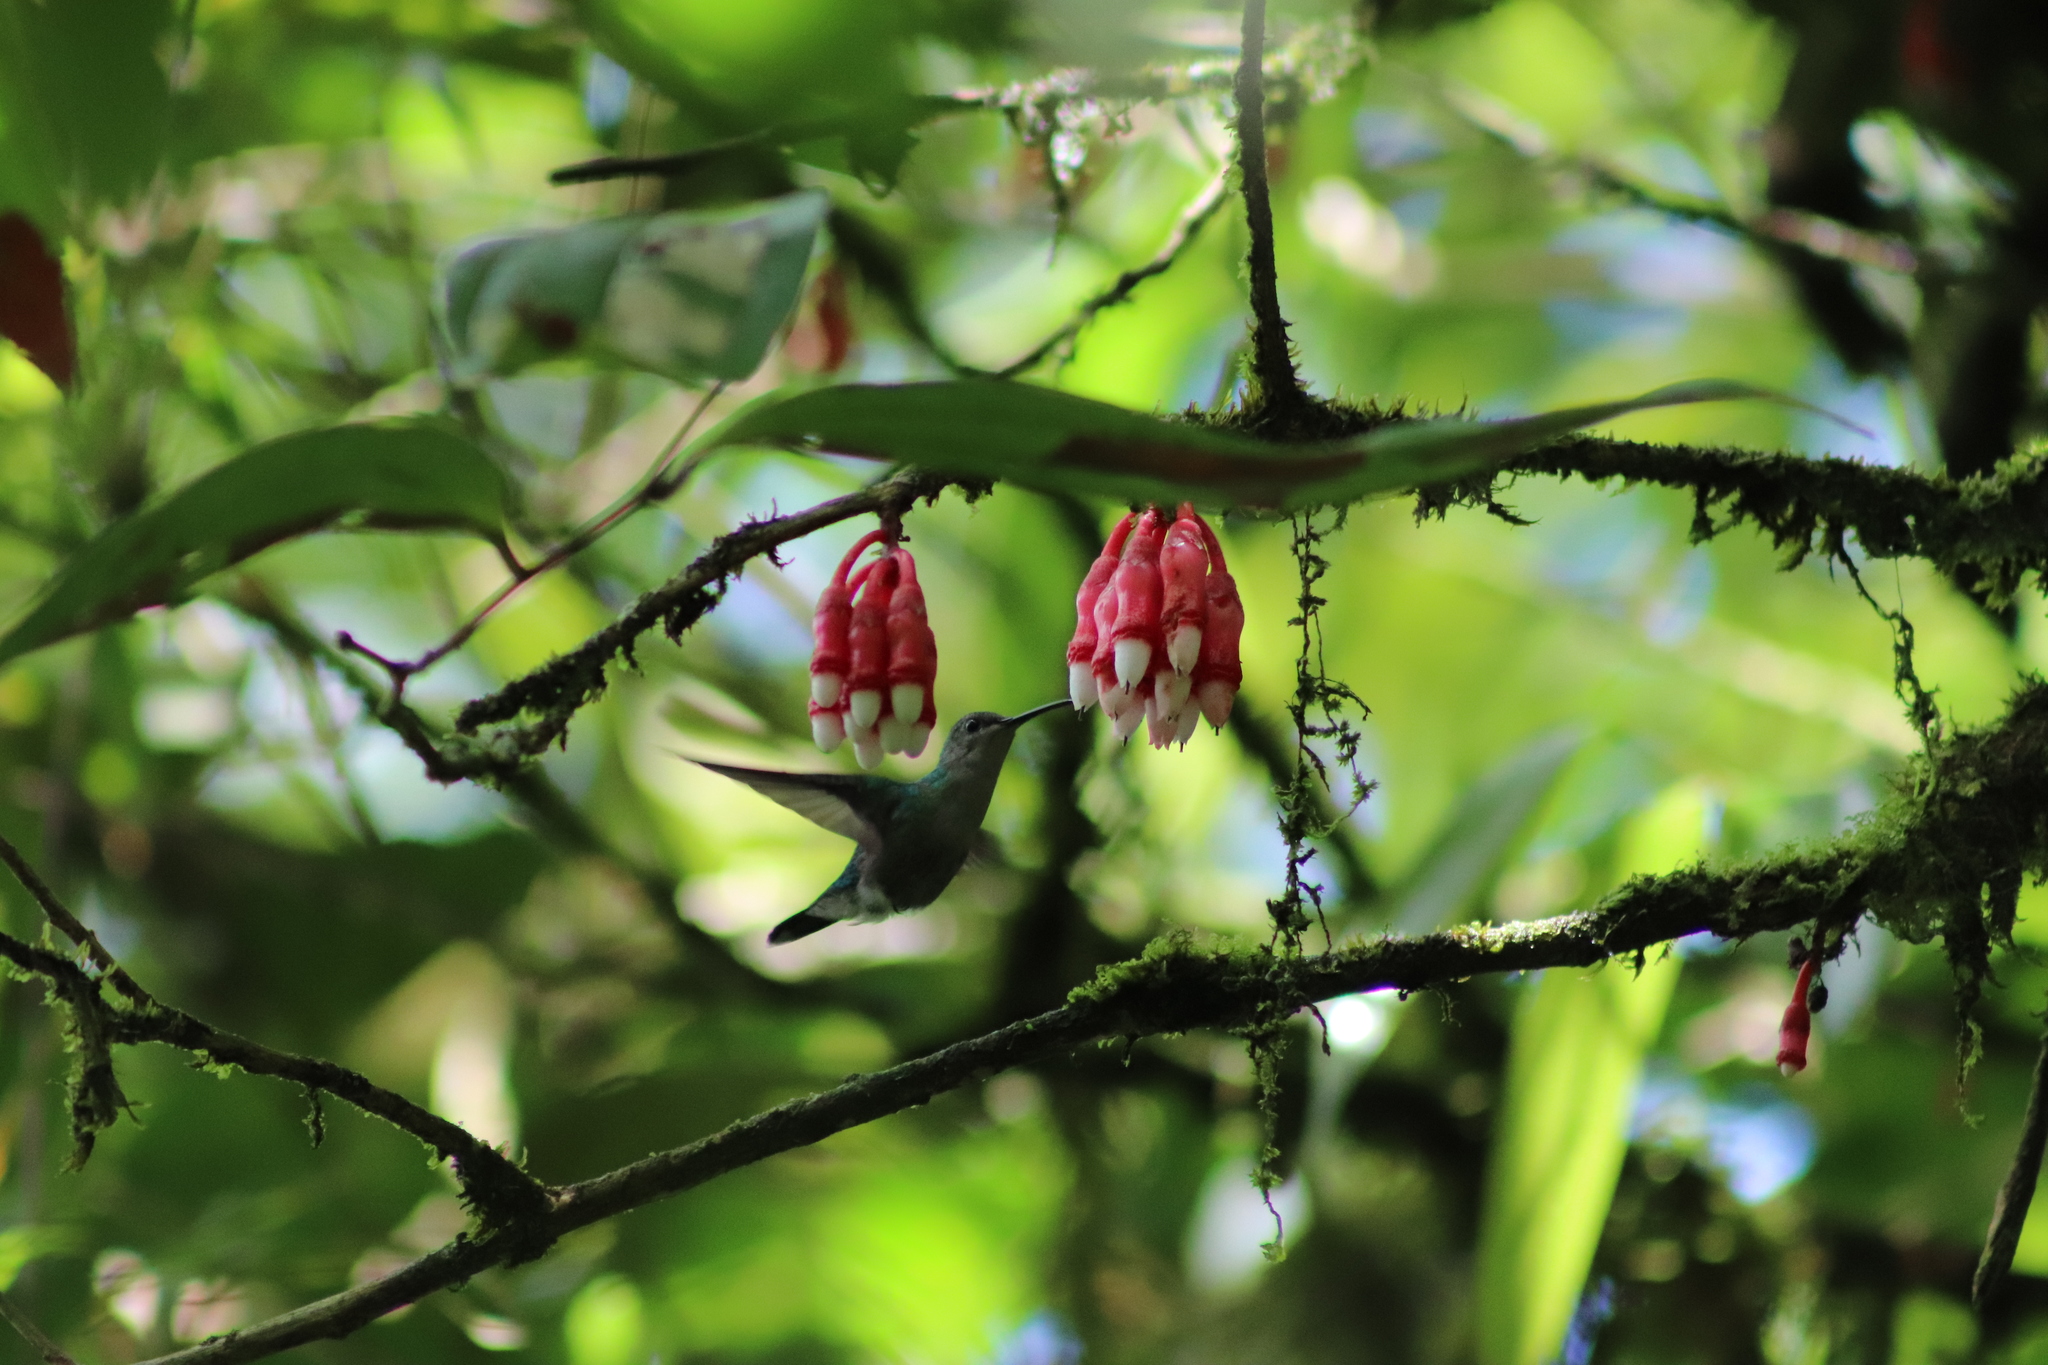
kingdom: Animalia
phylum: Chordata
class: Aves
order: Apodiformes
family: Trochilidae
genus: Thalurania
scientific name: Thalurania colombica
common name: Crowned woodnymph
